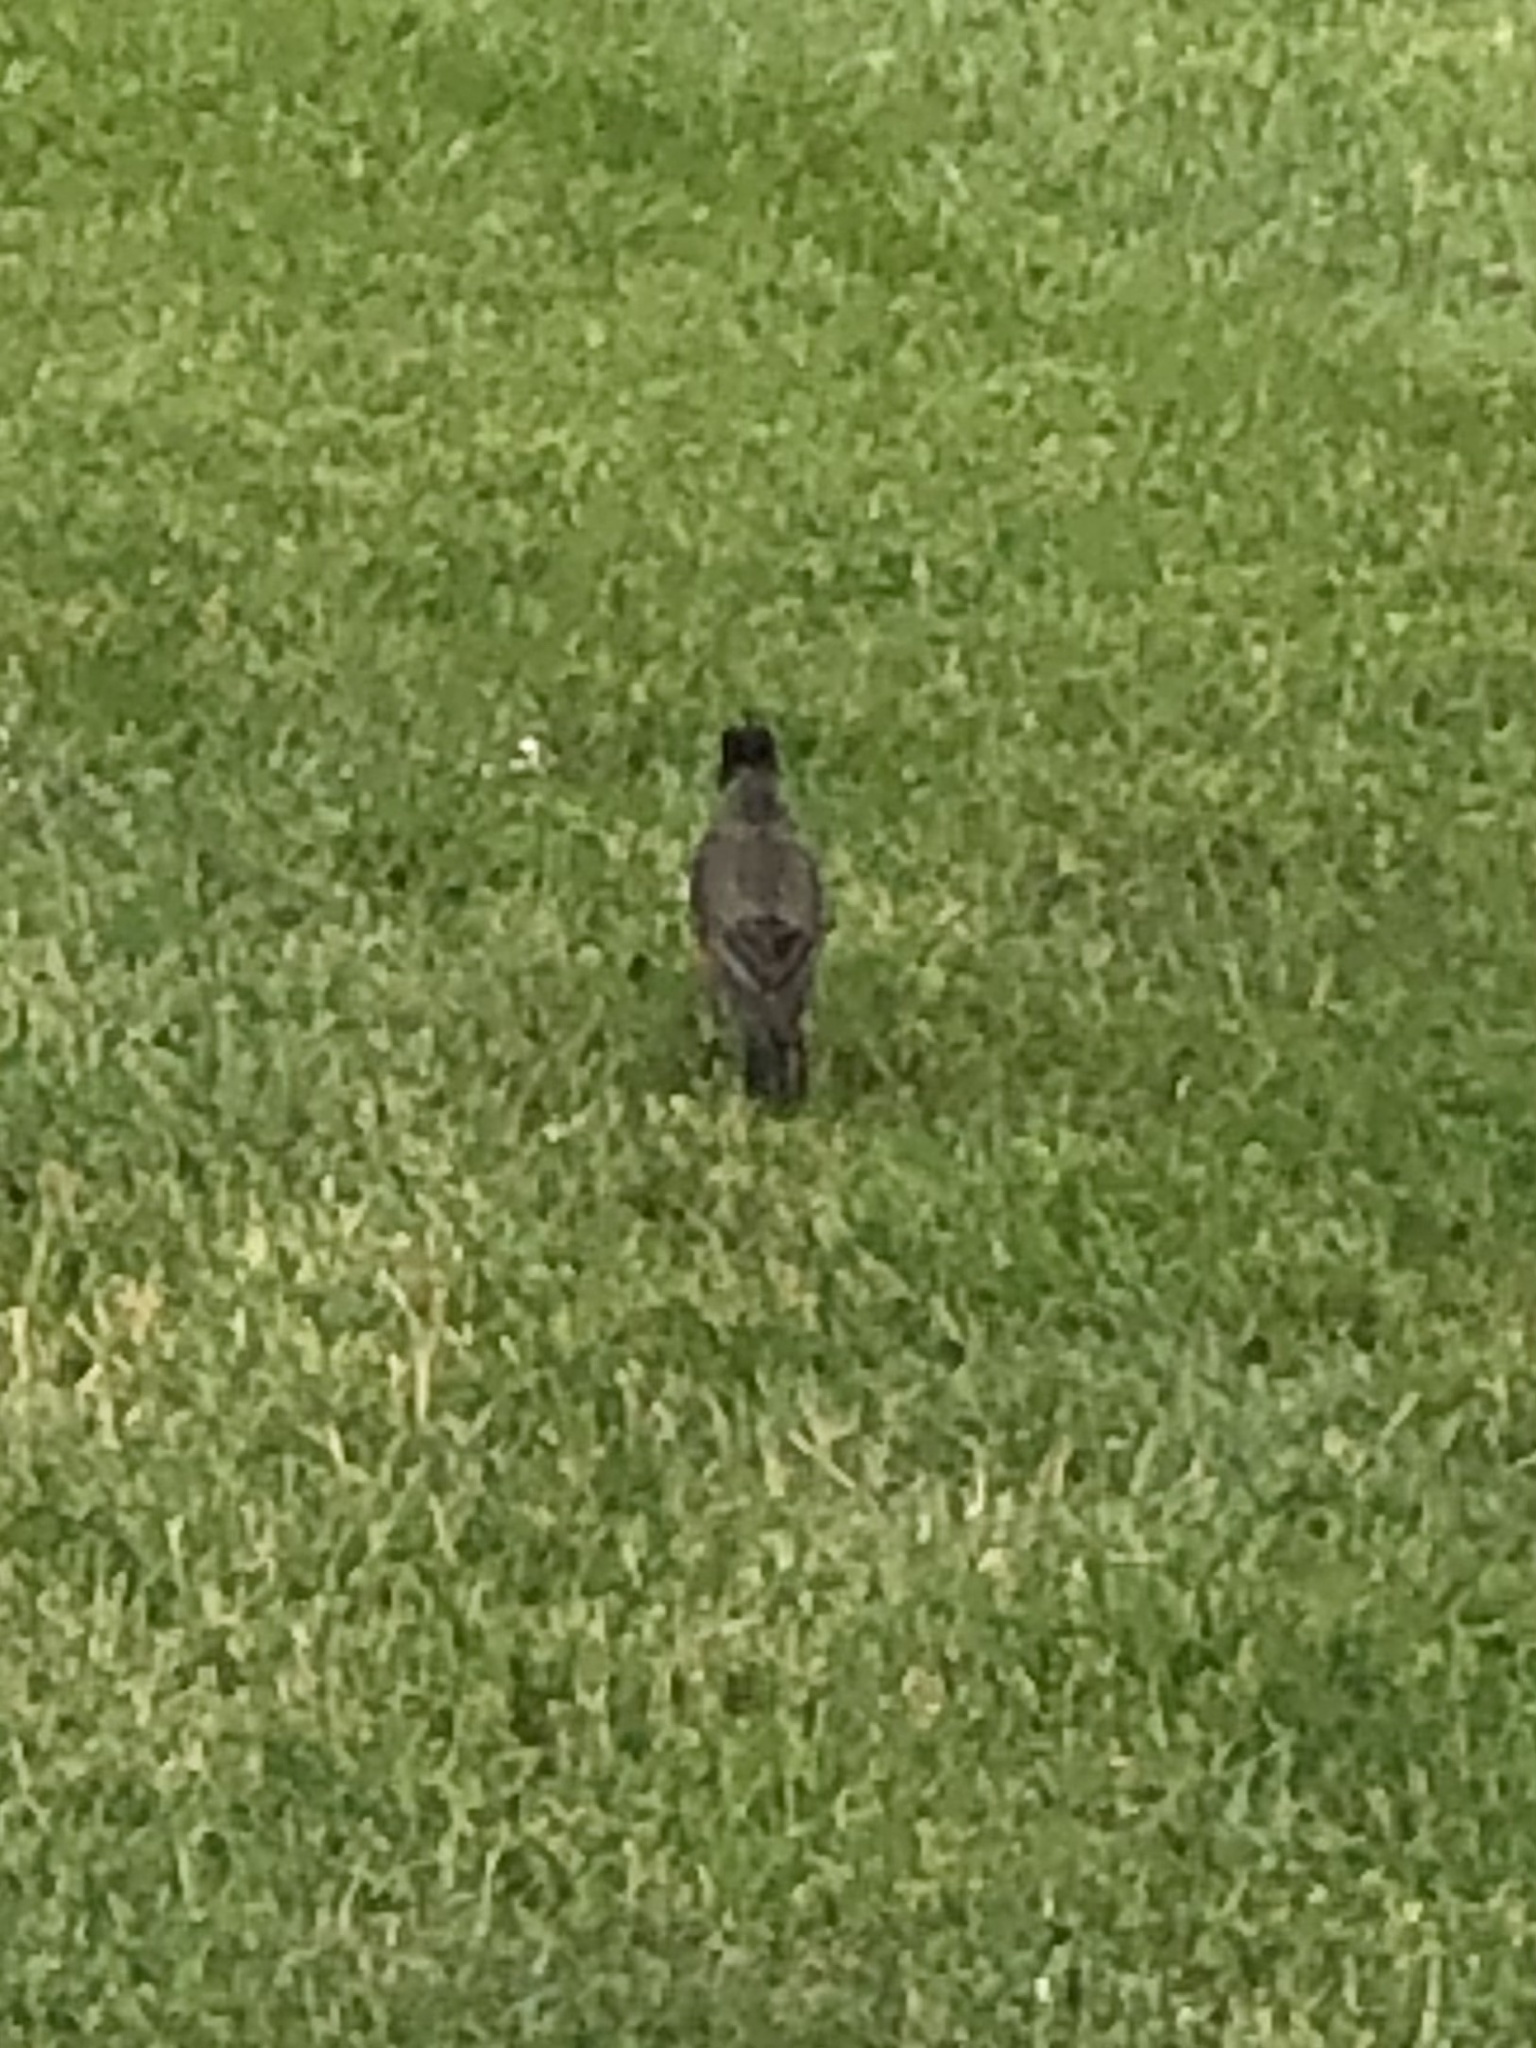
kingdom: Animalia
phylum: Chordata
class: Aves
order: Passeriformes
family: Turdidae
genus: Turdus
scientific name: Turdus migratorius
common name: American robin
